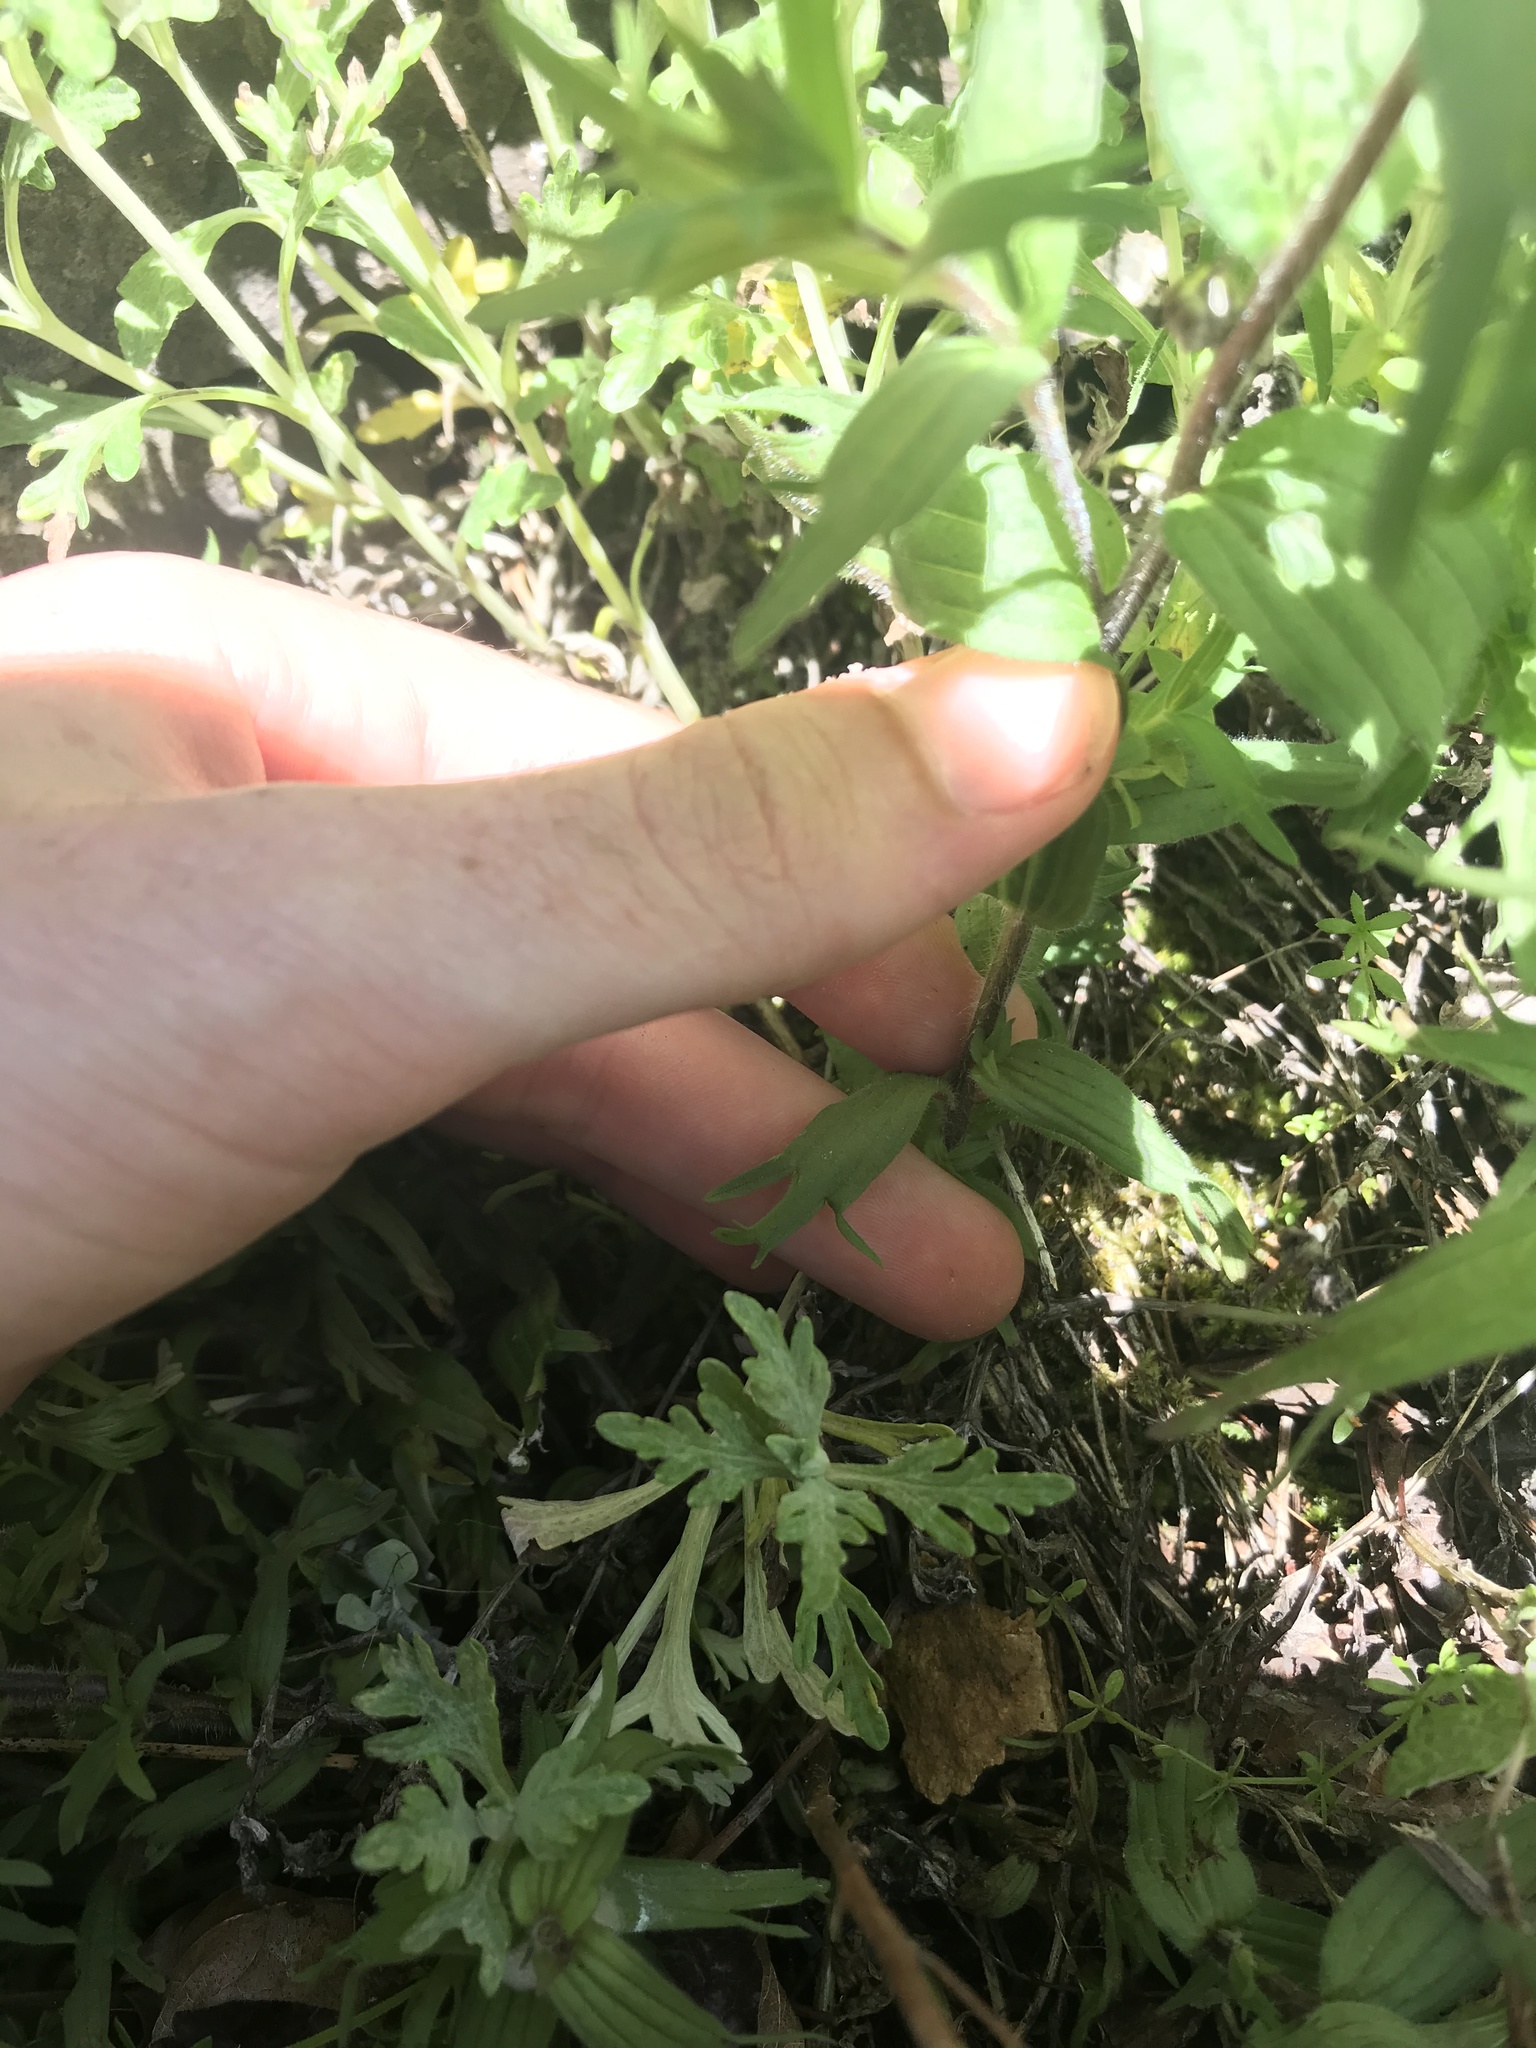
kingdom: Plantae
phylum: Tracheophyta
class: Magnoliopsida
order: Lamiales
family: Orobanchaceae
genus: Castilleja
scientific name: Castilleja hispida
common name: Bristly paintbrush
